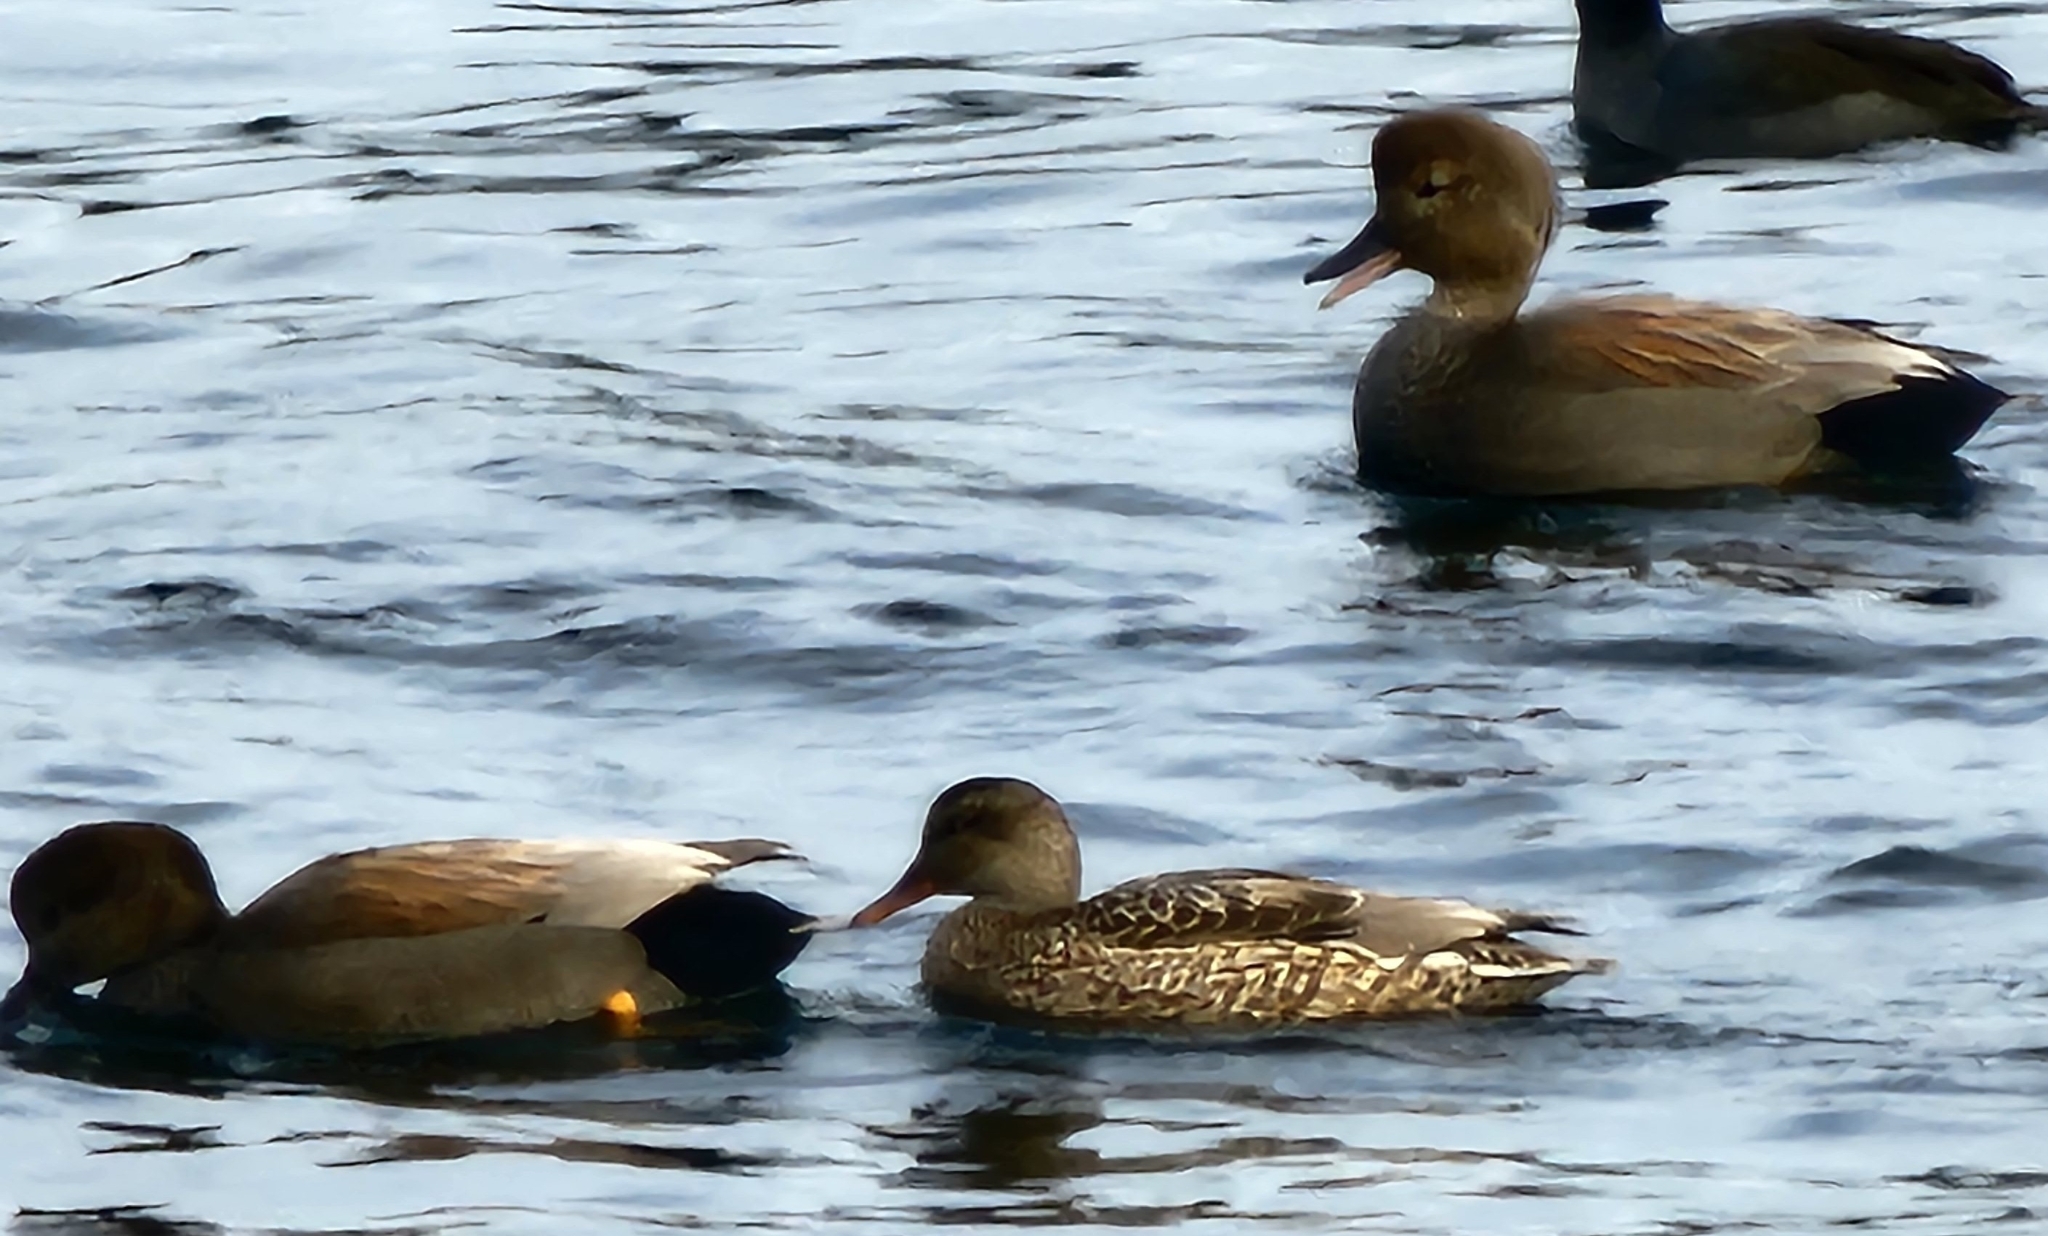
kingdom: Animalia
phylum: Chordata
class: Aves
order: Anseriformes
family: Anatidae
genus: Mareca
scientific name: Mareca strepera
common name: Gadwall
